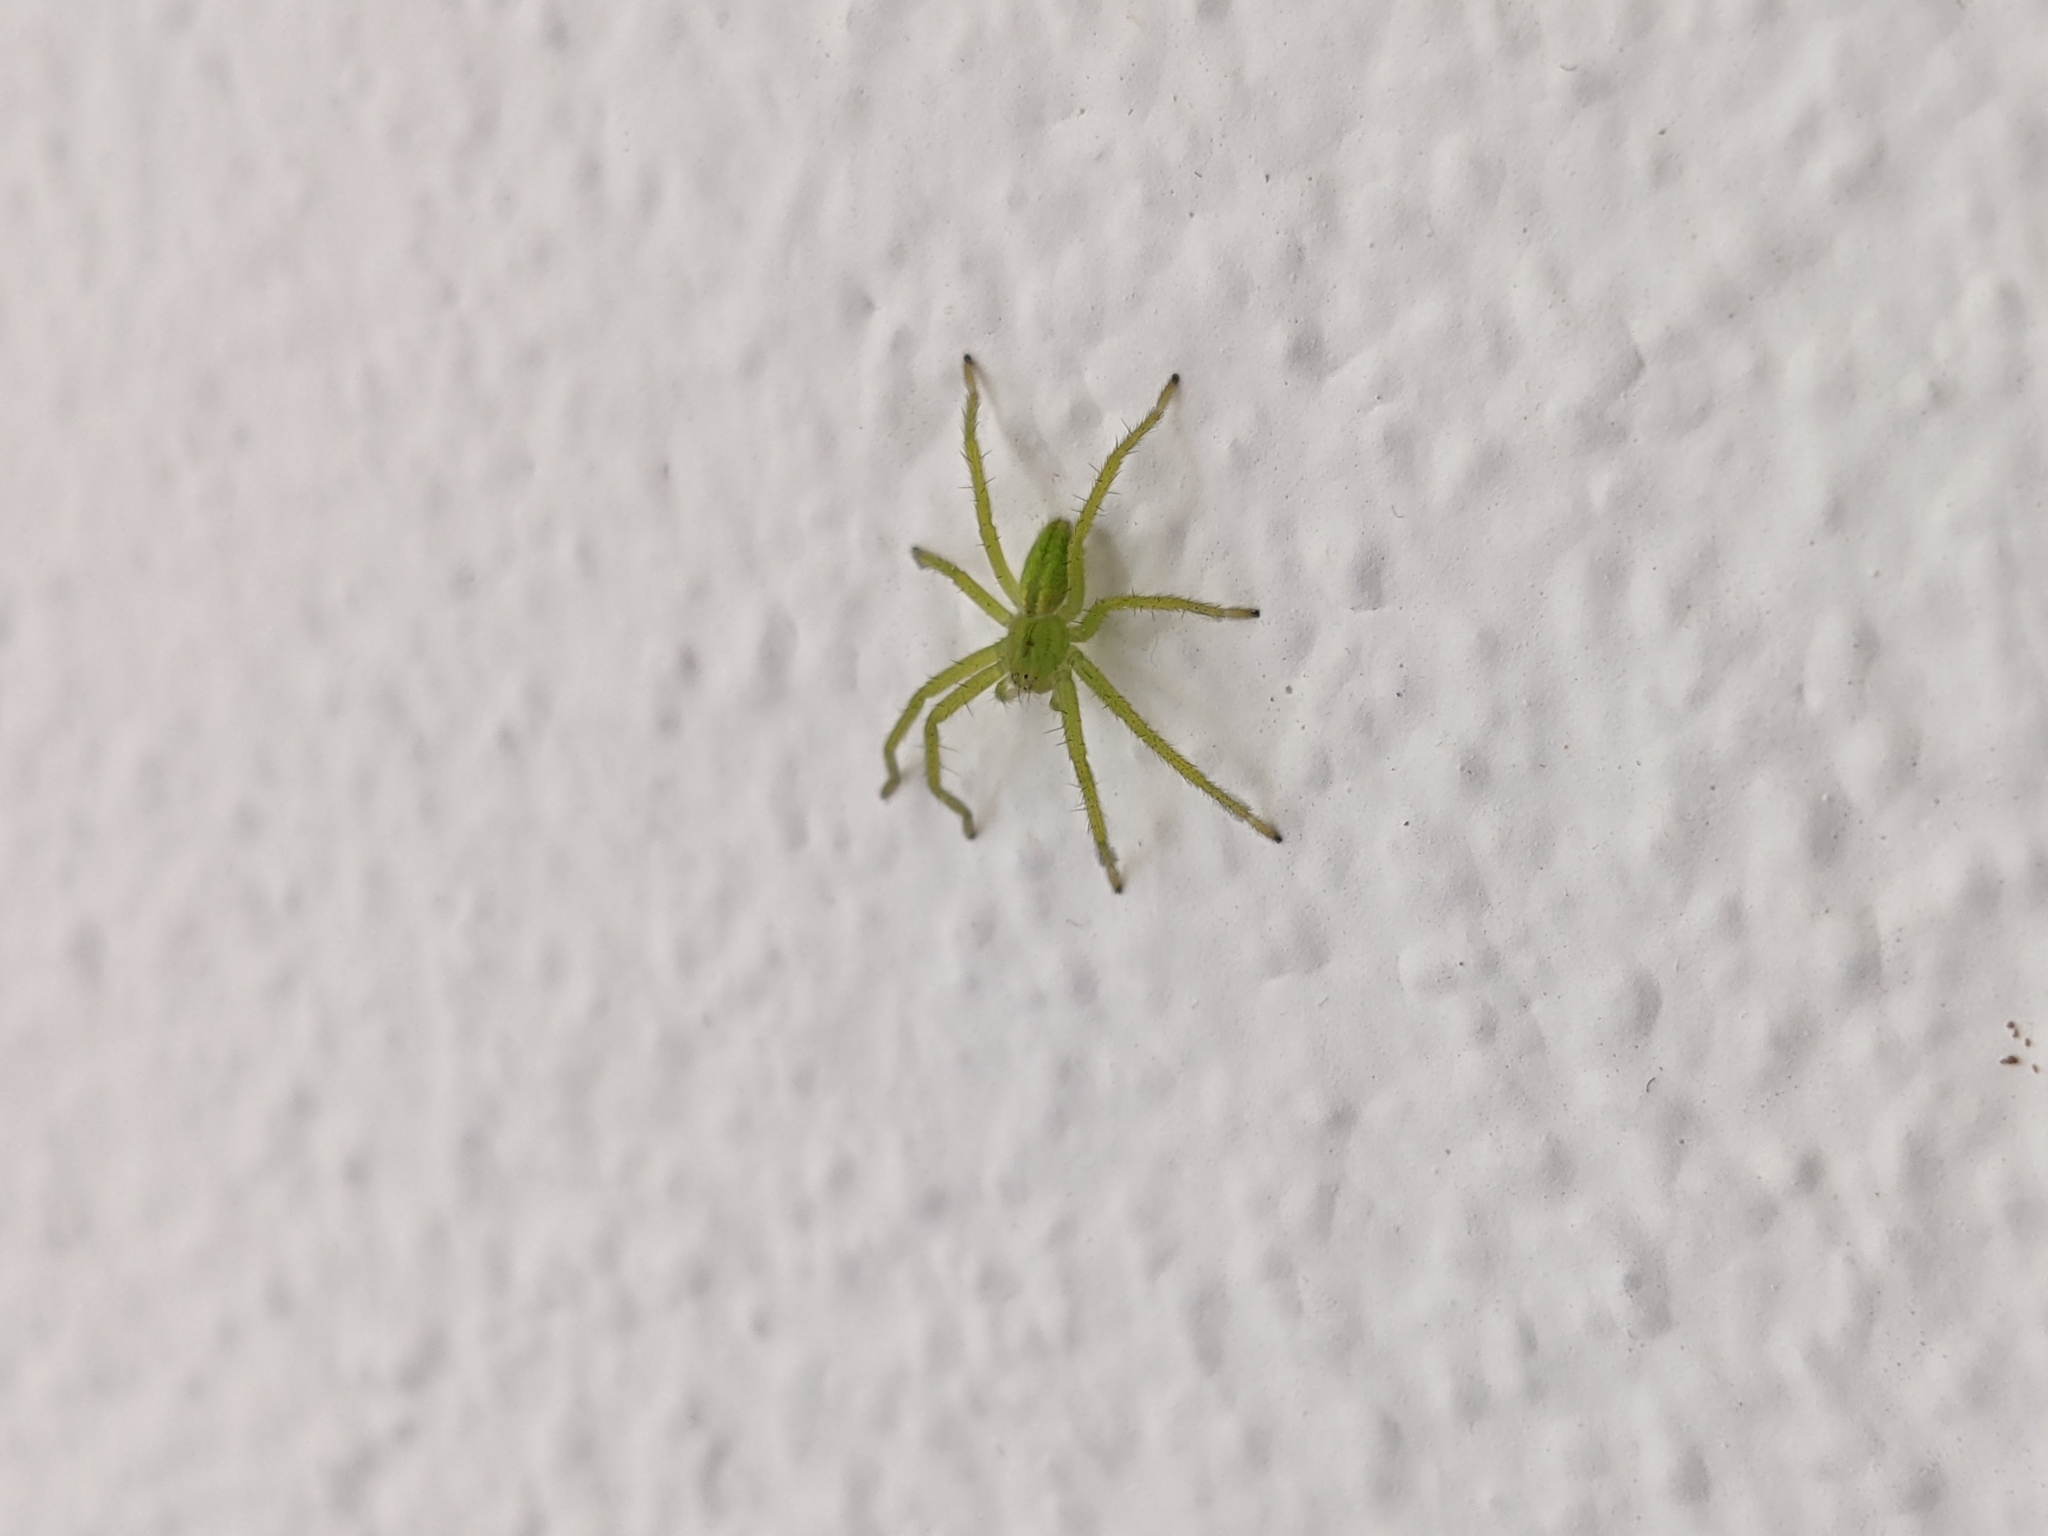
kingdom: Animalia
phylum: Arthropoda
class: Arachnida
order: Araneae
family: Sparassidae
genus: Micrommata
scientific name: Micrommata virescens
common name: Green spider
